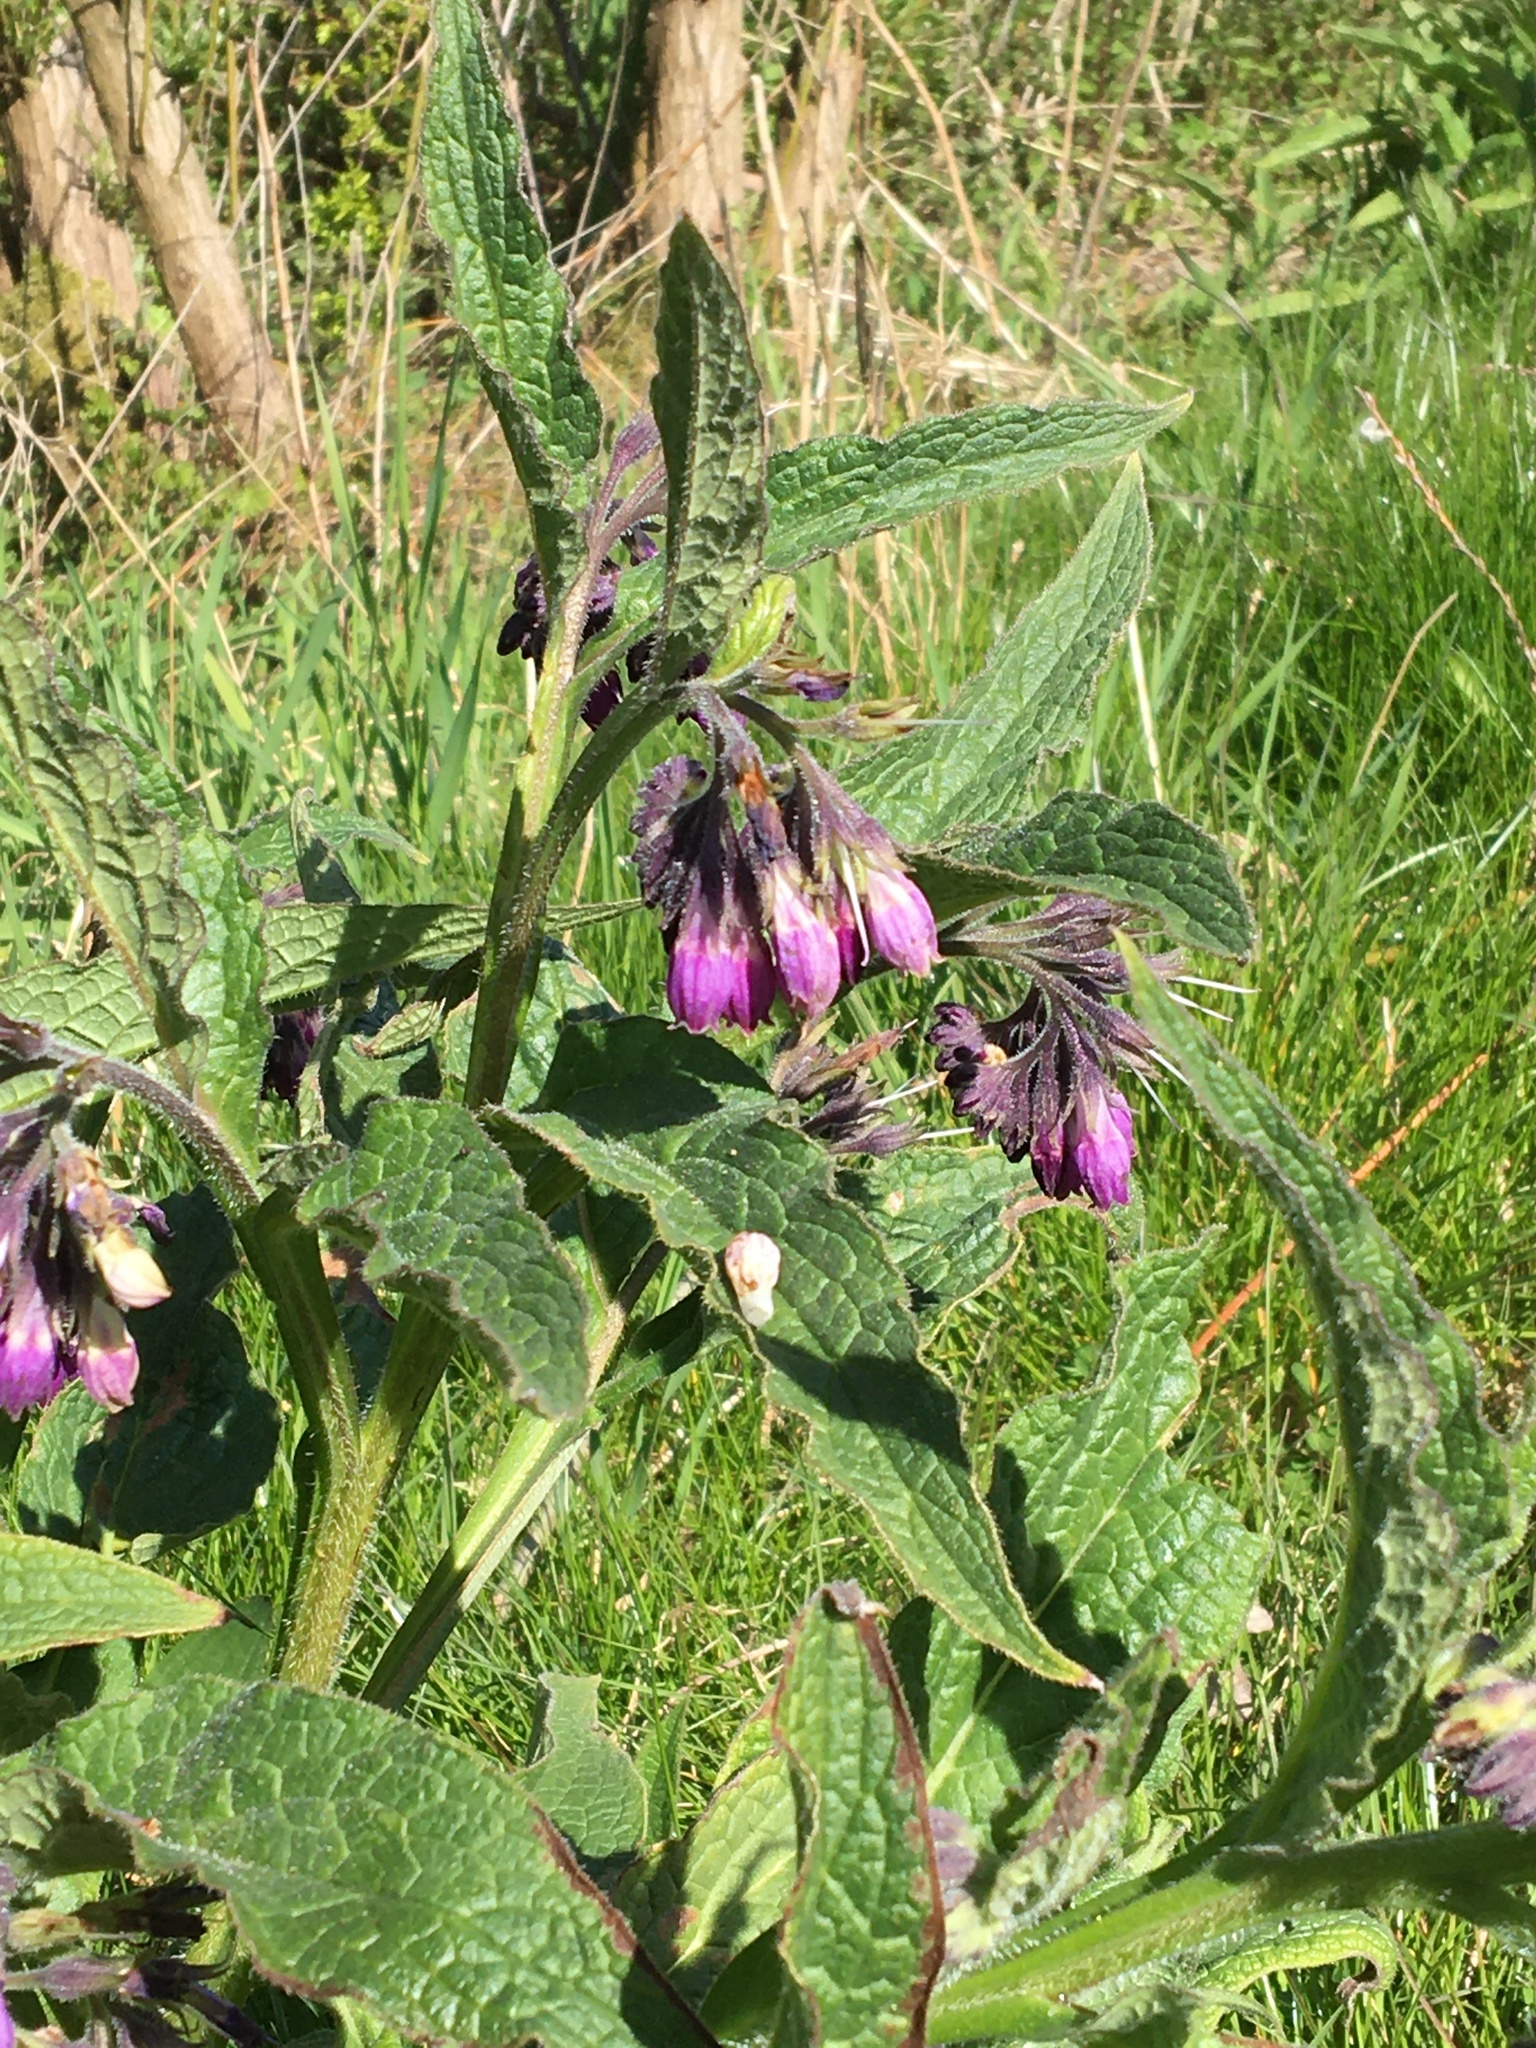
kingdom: Plantae
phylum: Tracheophyta
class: Magnoliopsida
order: Boraginales
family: Boraginaceae
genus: Symphytum
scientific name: Symphytum officinale
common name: Common comfrey
